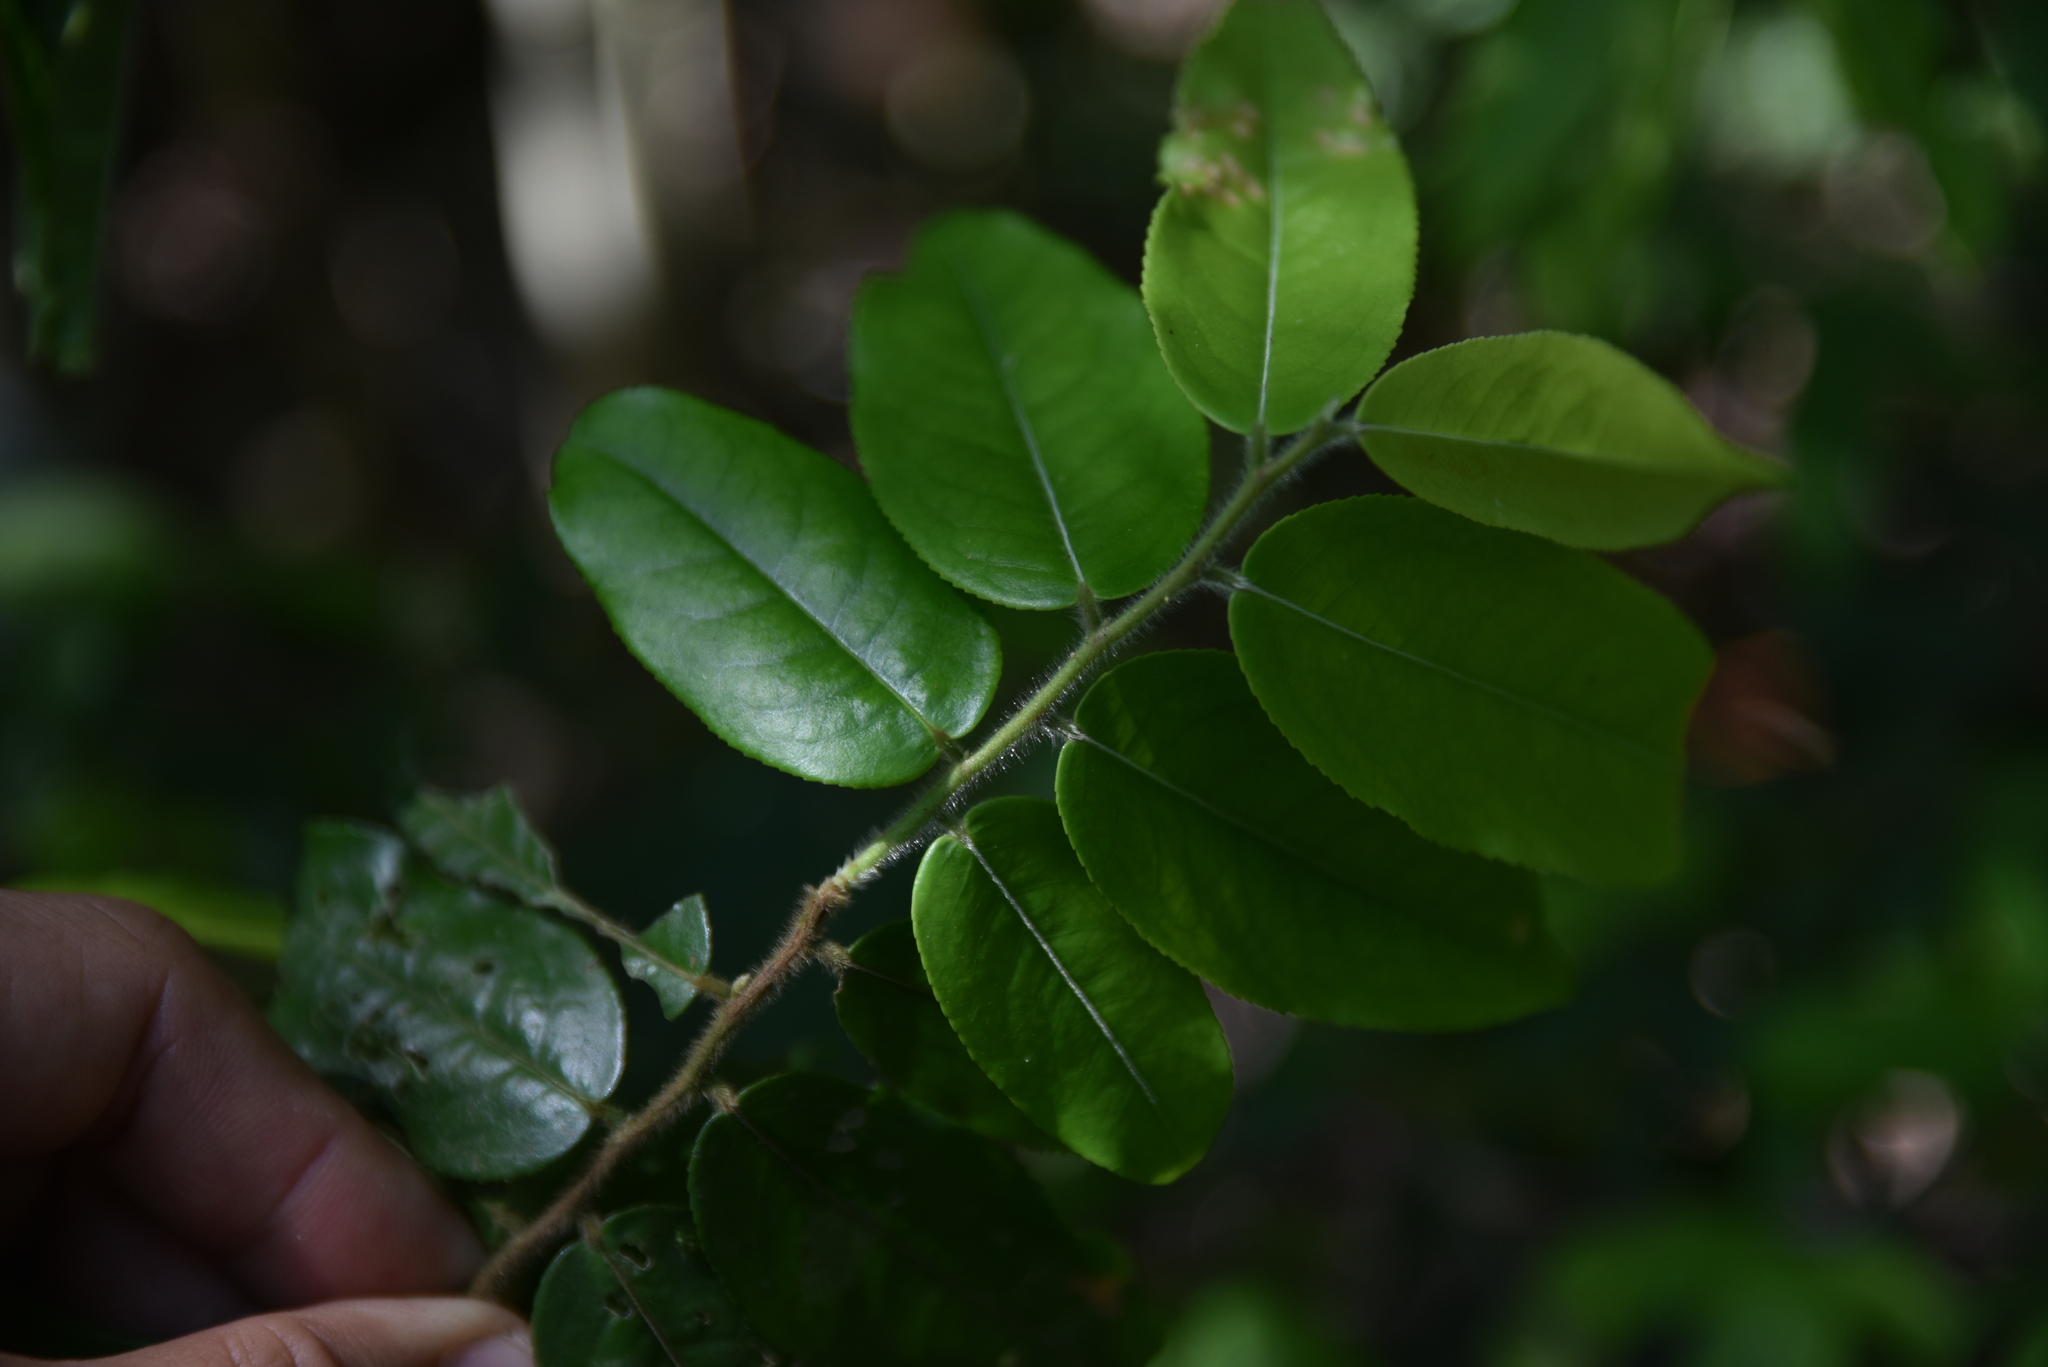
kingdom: Plantae
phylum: Tracheophyta
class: Magnoliopsida
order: Ericales
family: Pentaphylacaceae
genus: Eurya
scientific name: Eurya strigillosa
